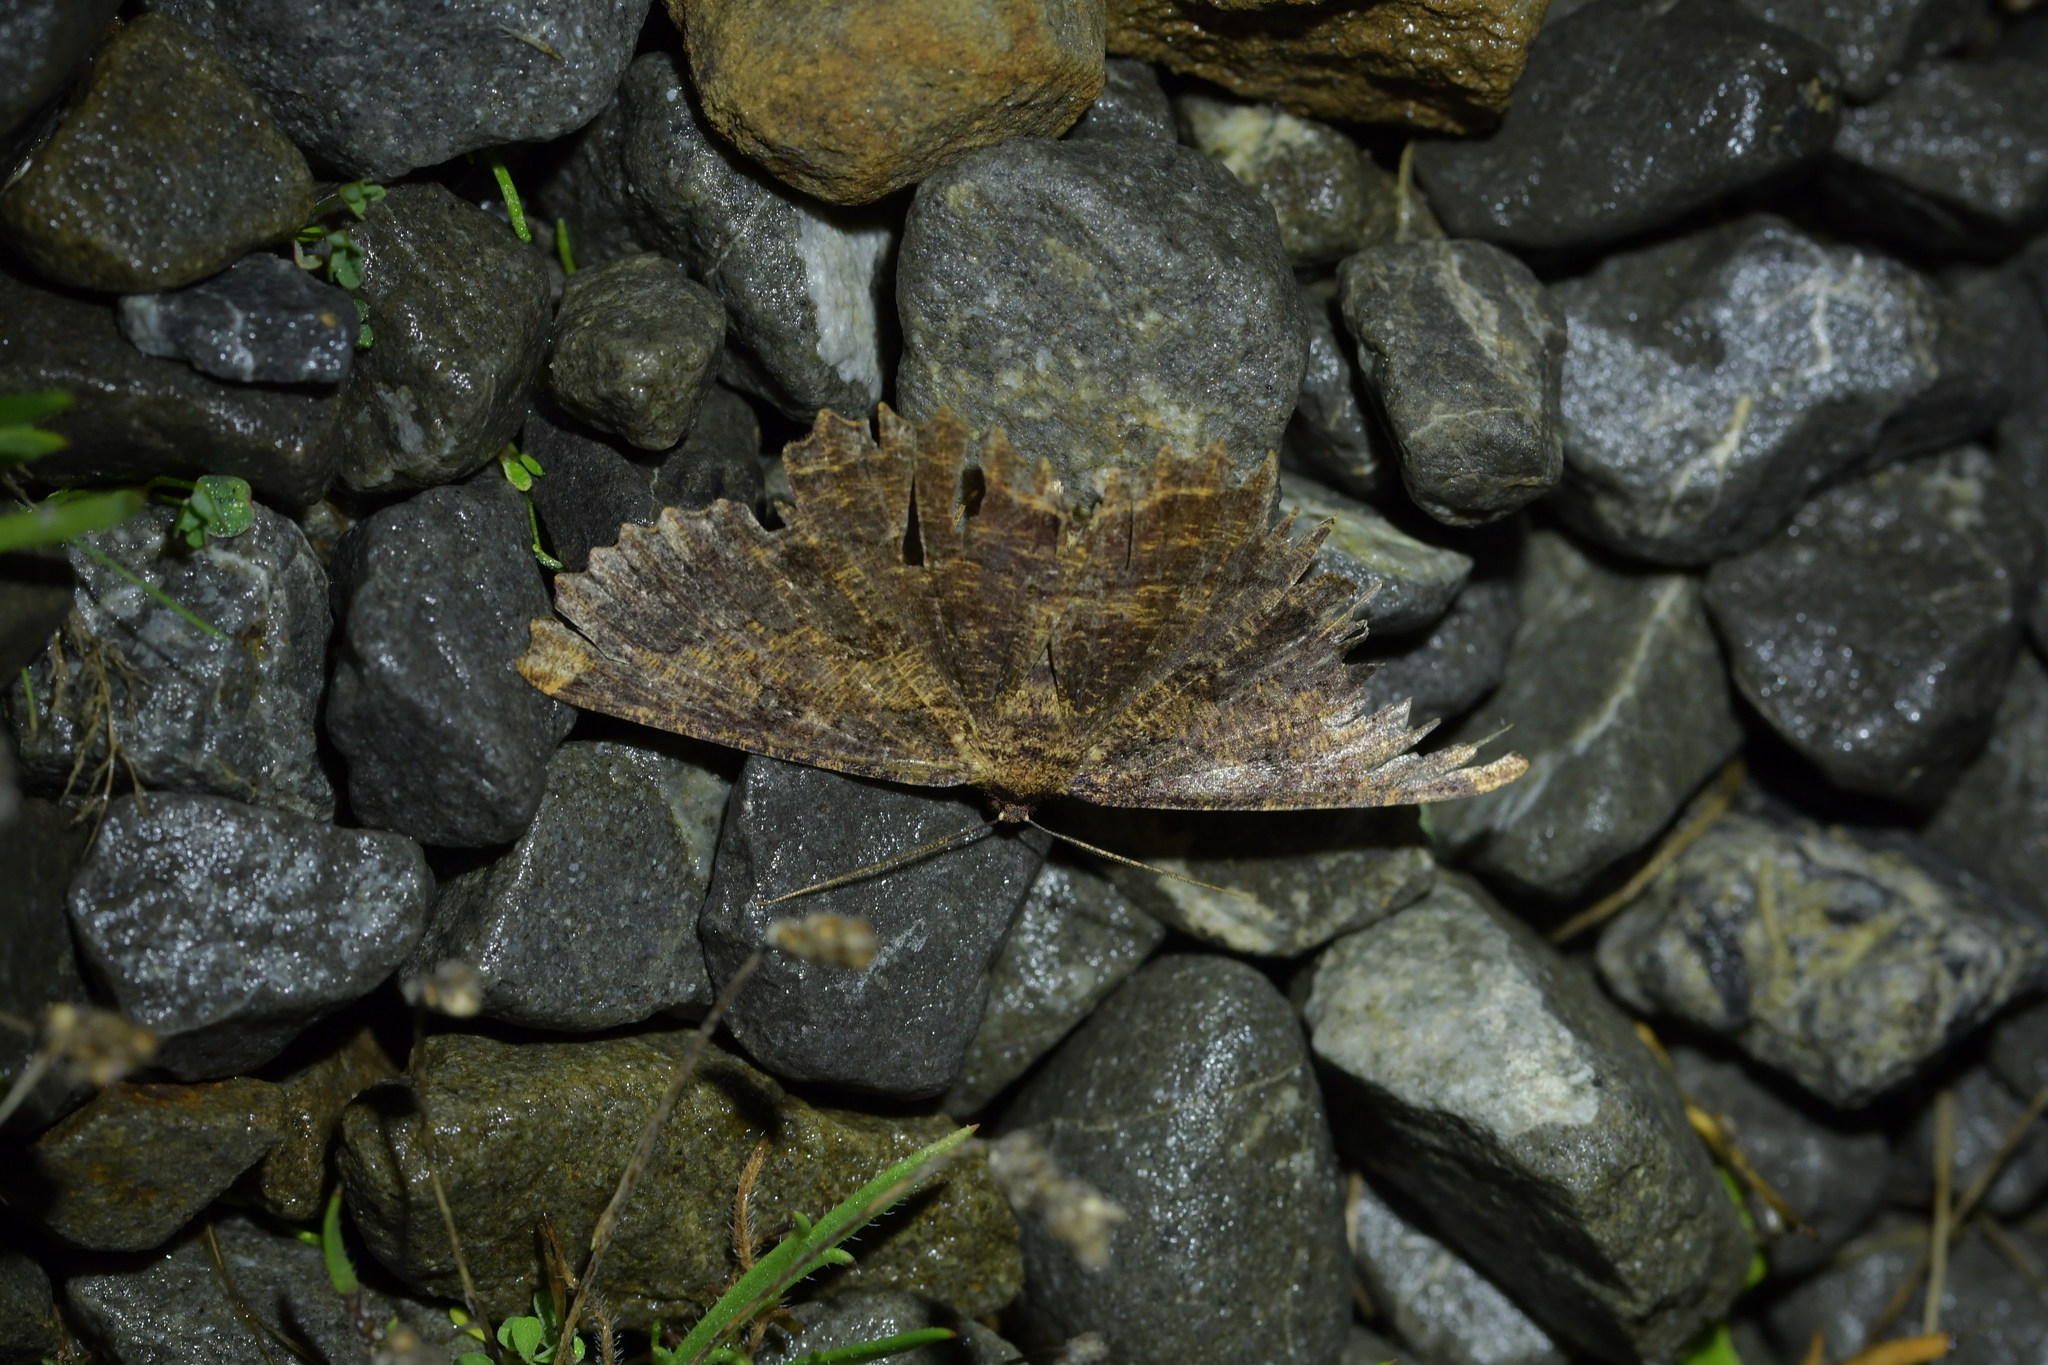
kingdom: Animalia
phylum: Arthropoda
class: Insecta
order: Lepidoptera
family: Geometridae
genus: Gellonia
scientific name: Gellonia dejectaria
